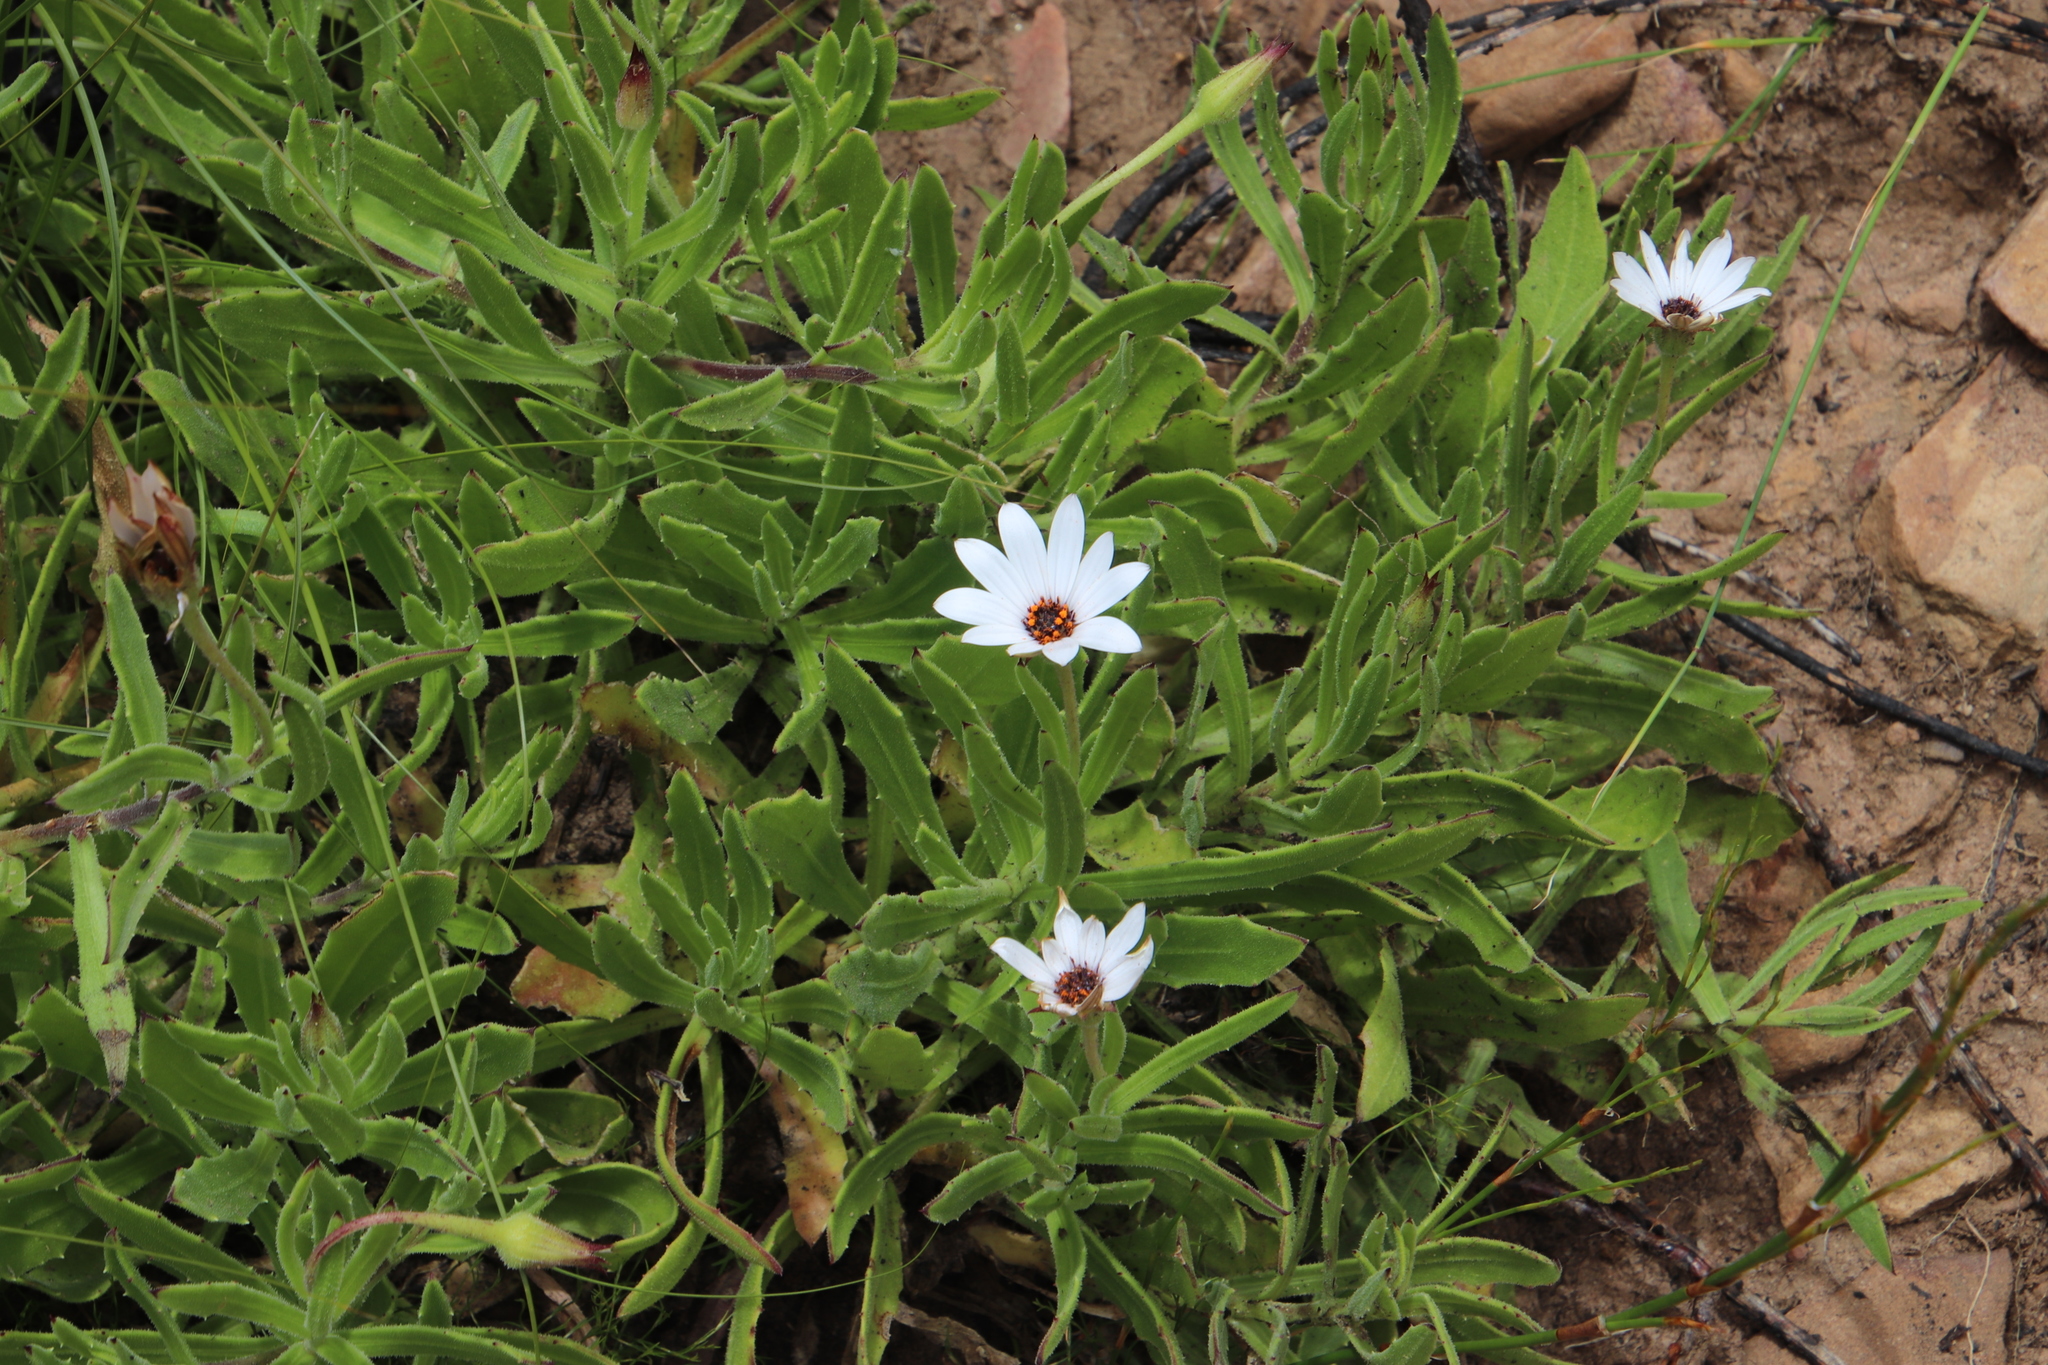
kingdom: Plantae
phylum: Tracheophyta
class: Magnoliopsida
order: Asterales
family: Asteraceae
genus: Dimorphotheca
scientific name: Dimorphotheca acutifolia
